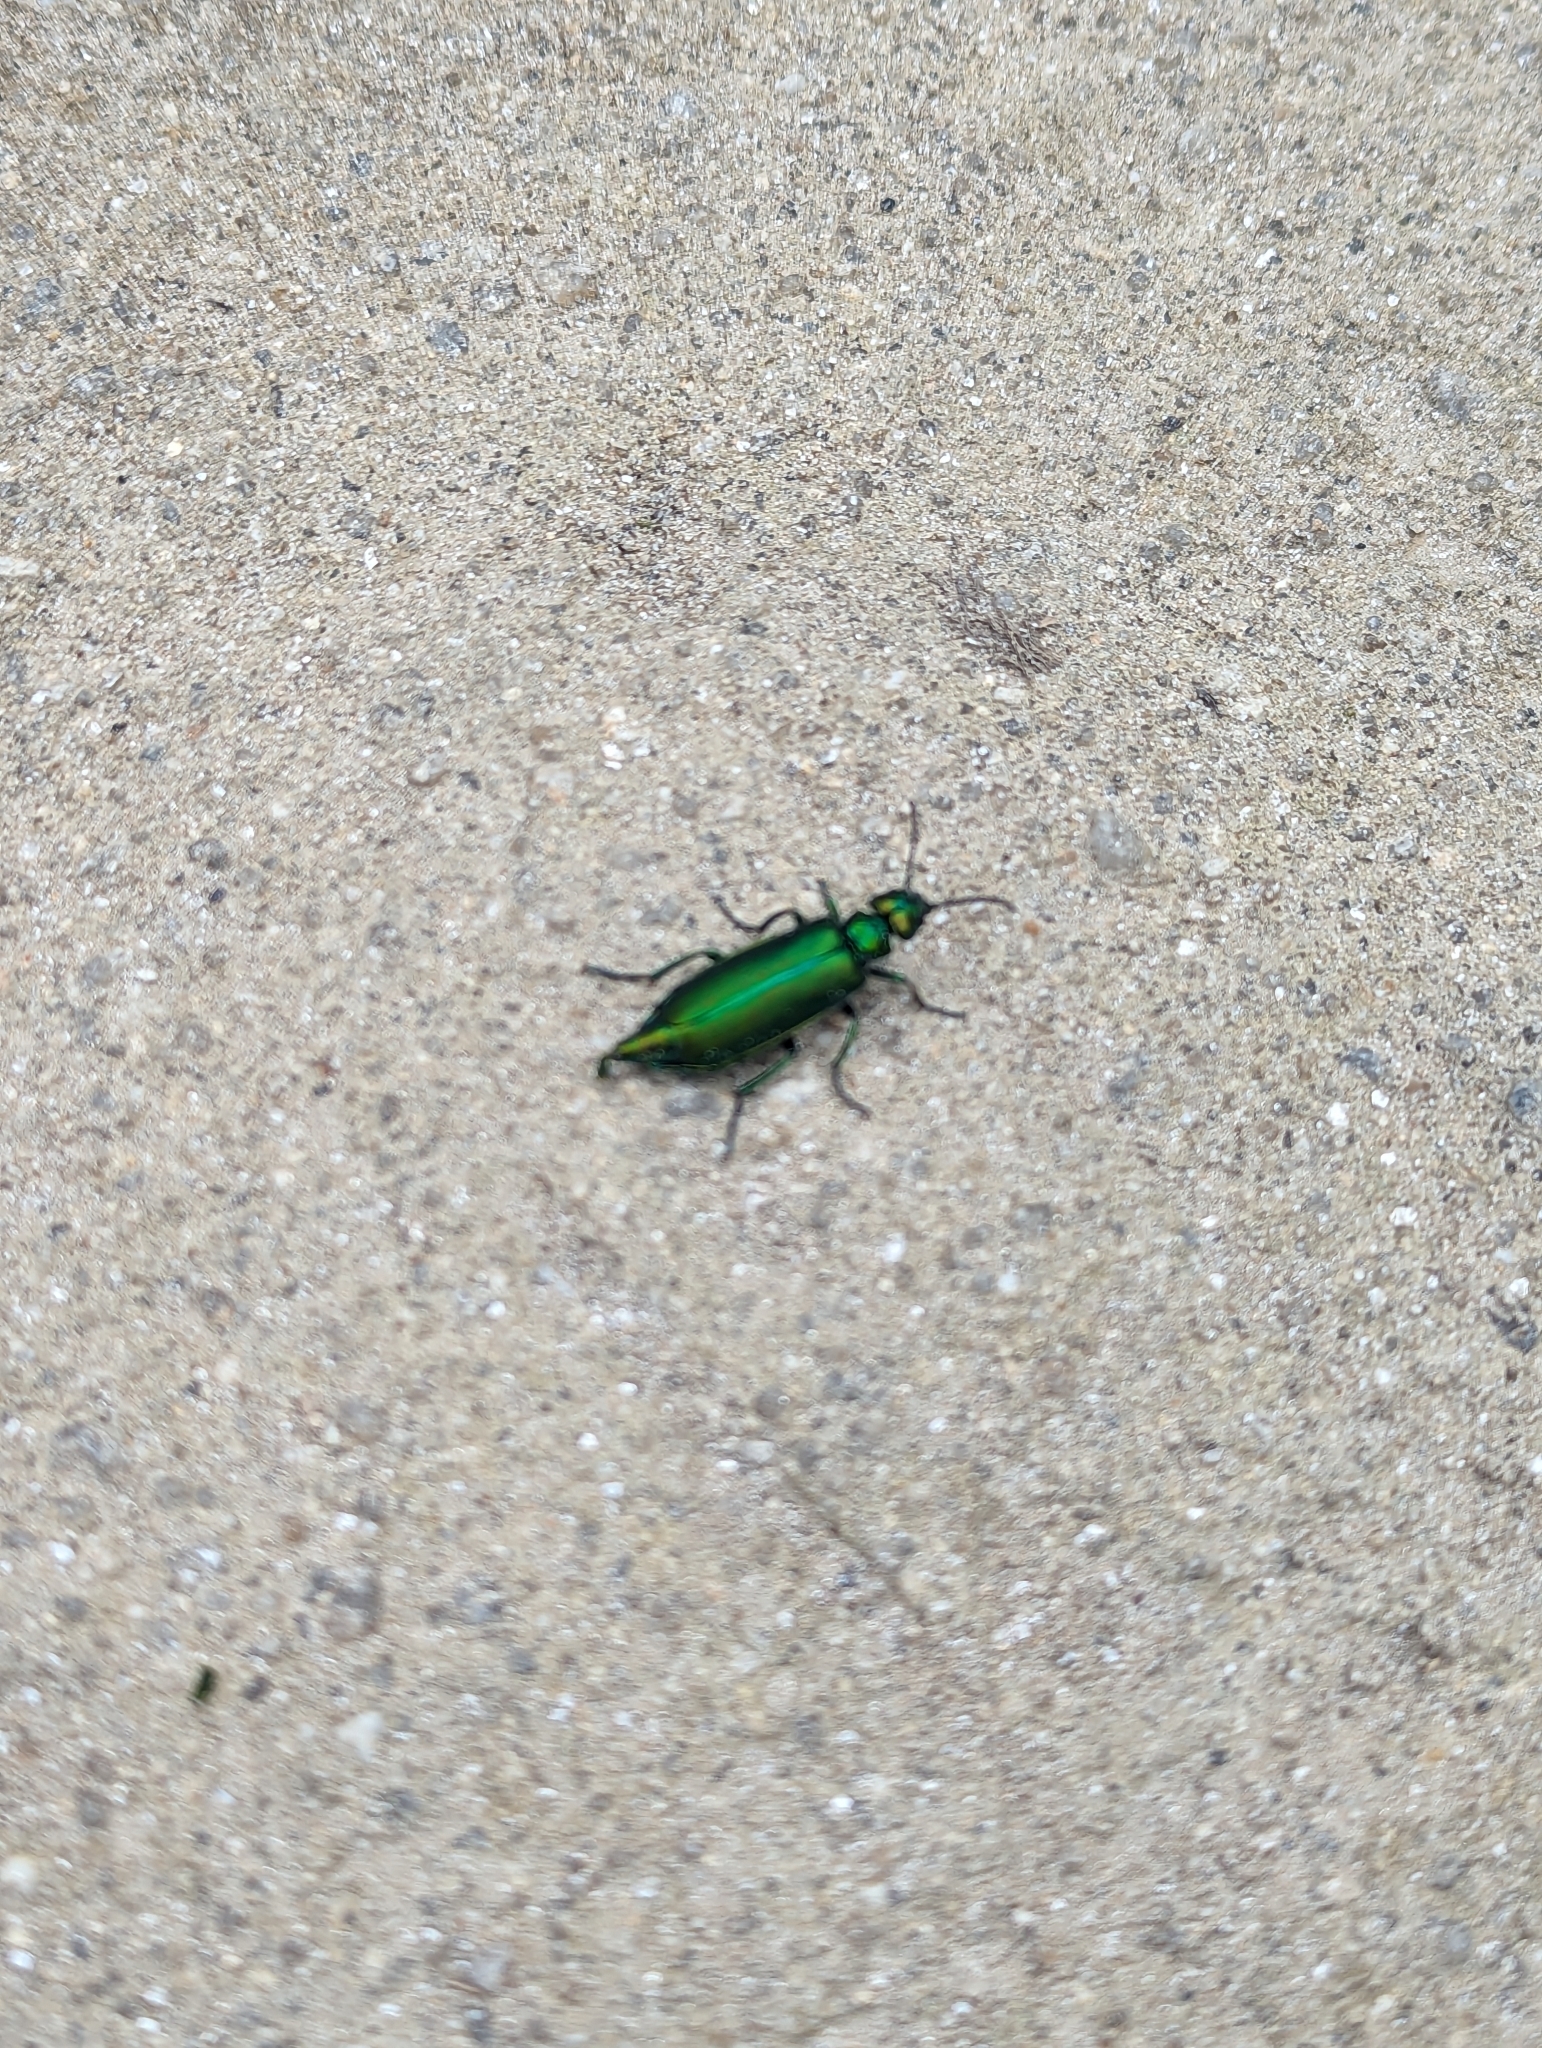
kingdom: Animalia
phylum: Arthropoda
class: Insecta
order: Coleoptera
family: Meloidae
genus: Lytta
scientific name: Lytta vesicatoria
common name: Spanish fly
